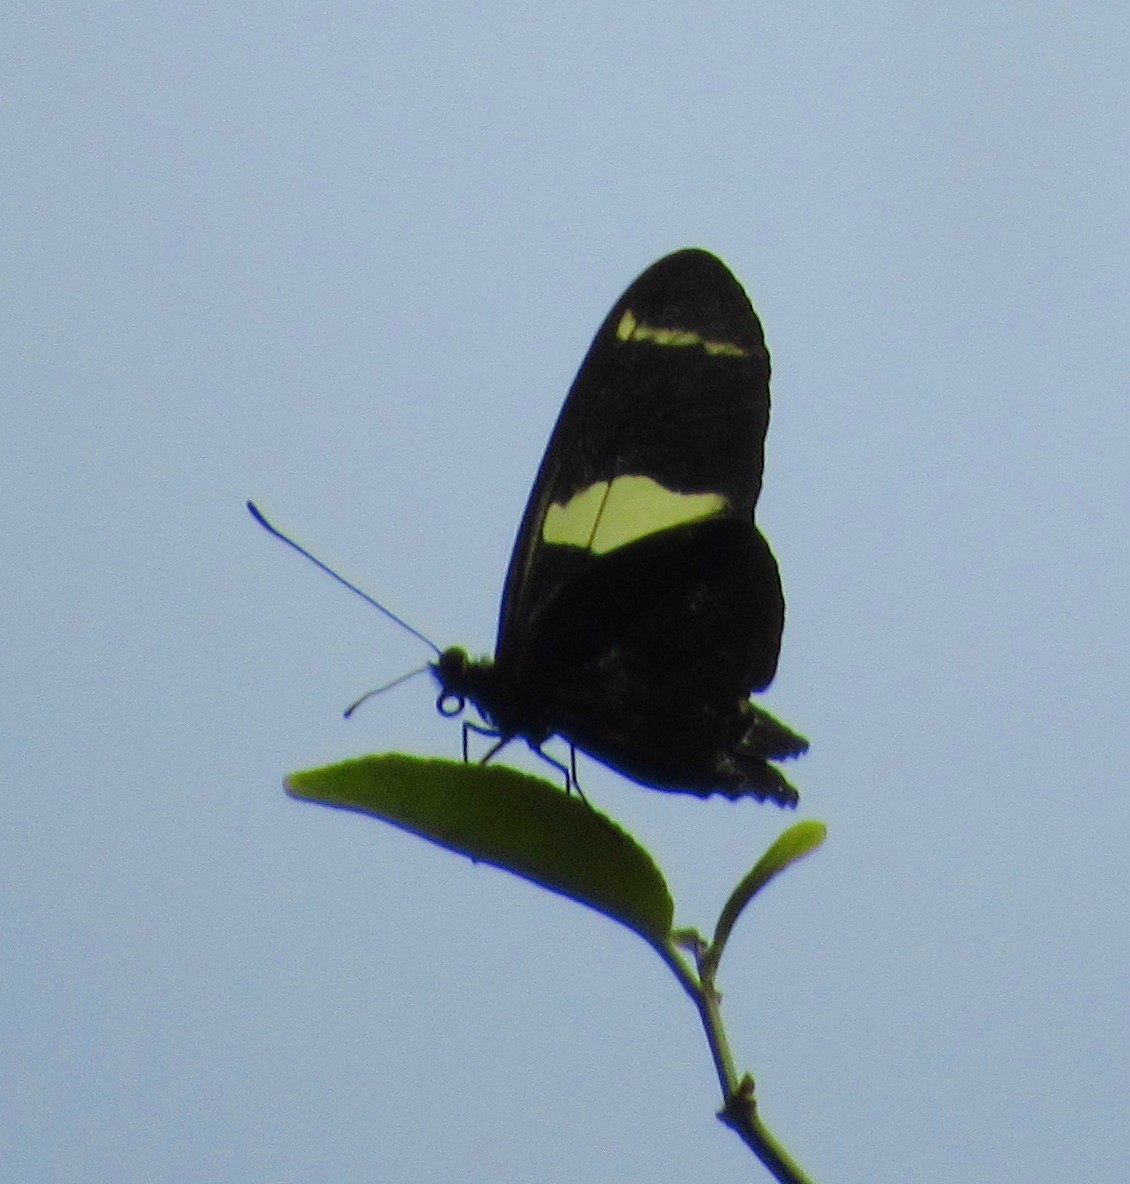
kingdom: Animalia
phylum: Arthropoda
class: Insecta
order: Lepidoptera
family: Nymphalidae
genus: Heliconius
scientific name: Heliconius sara
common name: Sara longwing
